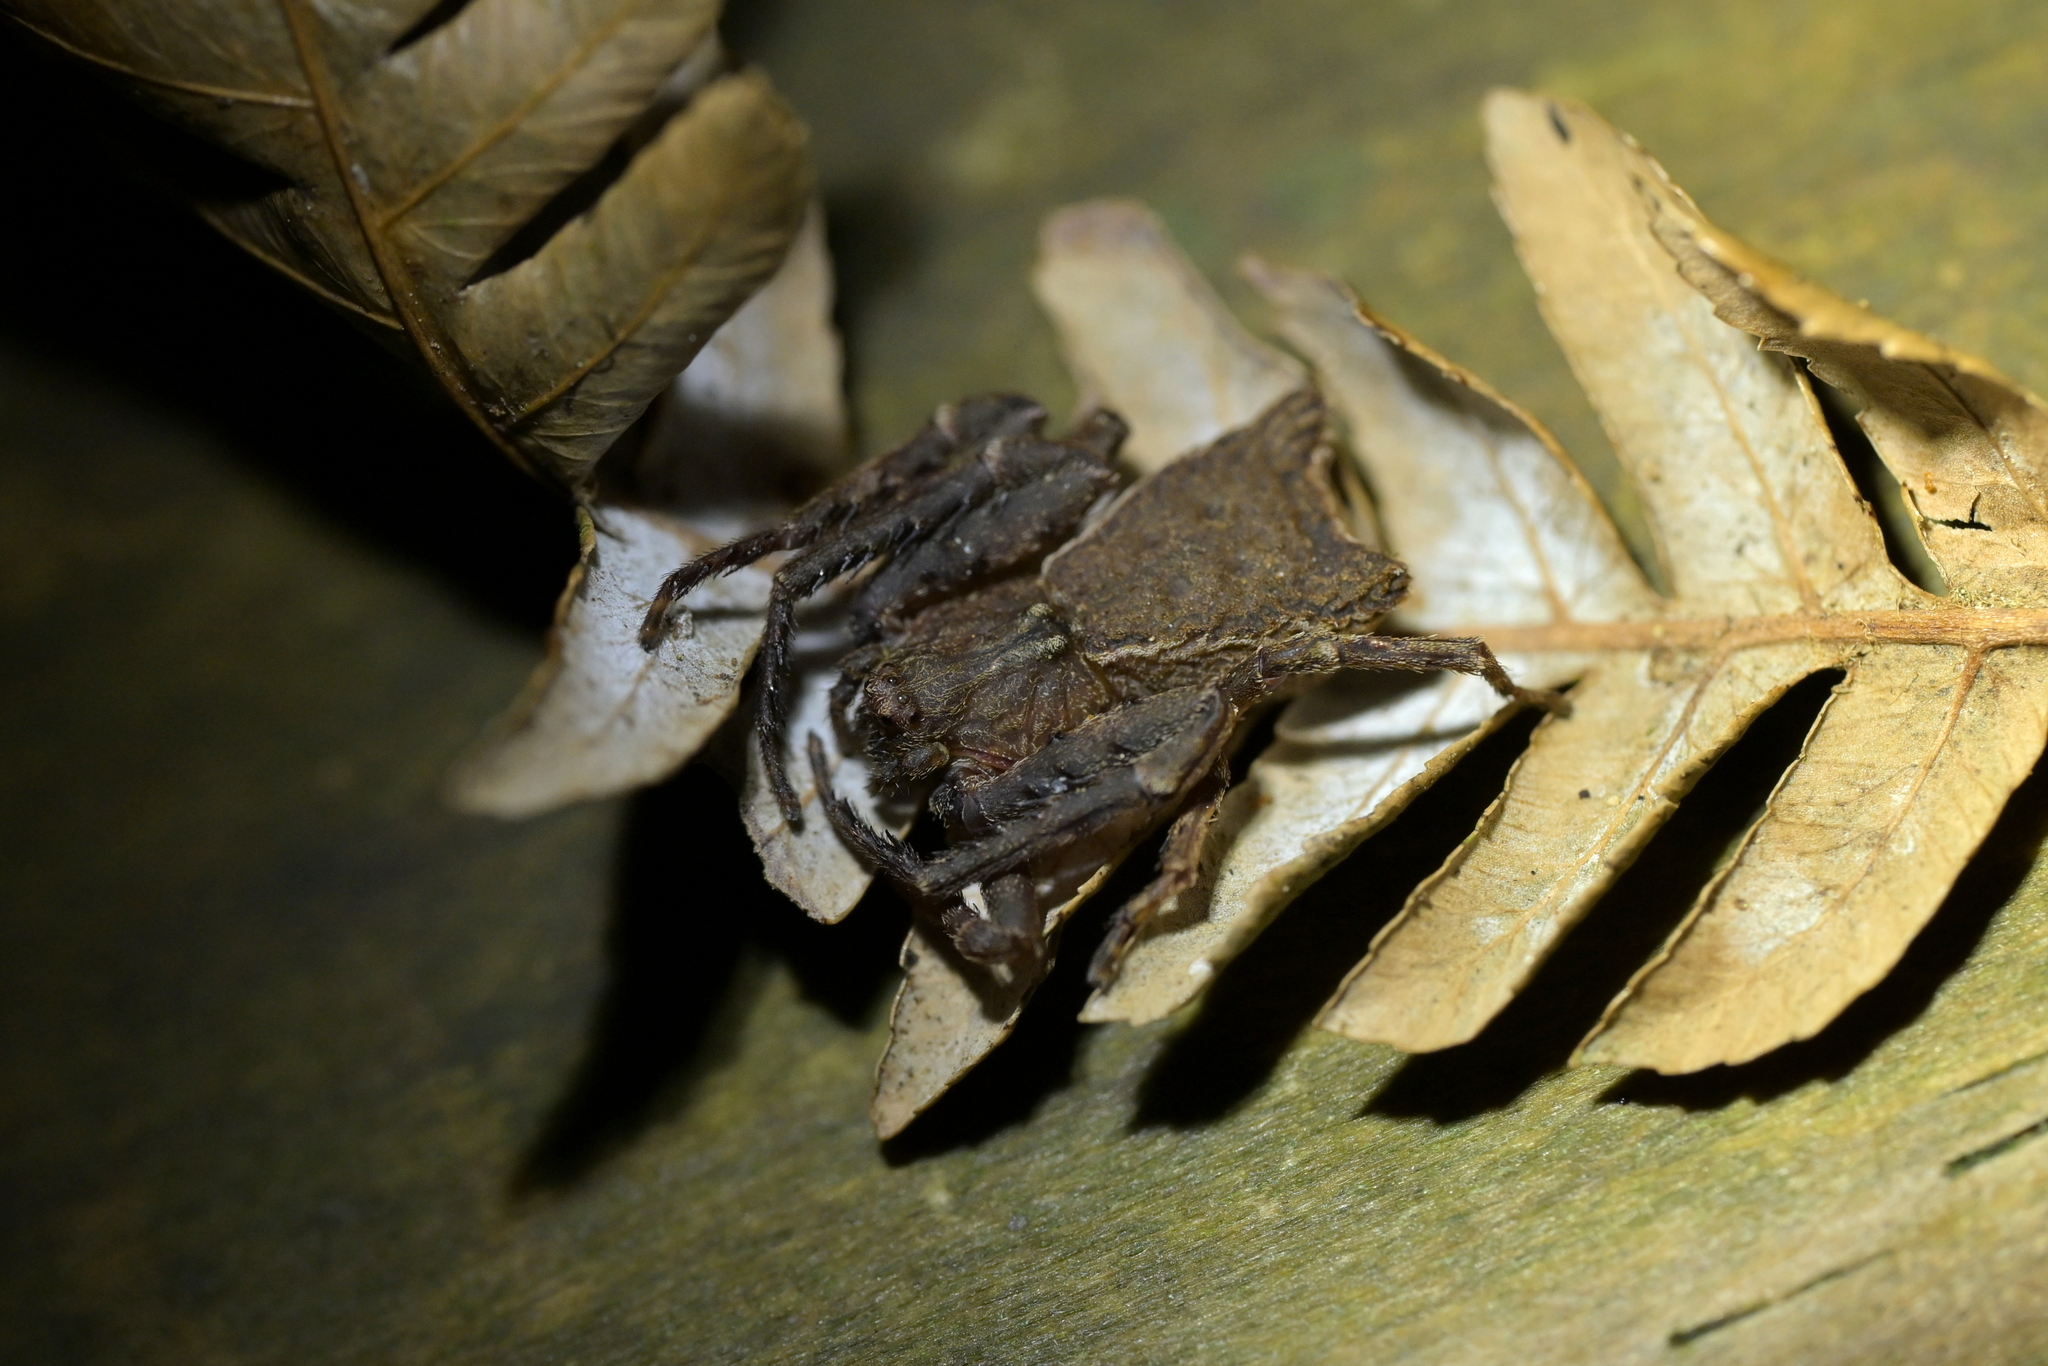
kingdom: Animalia
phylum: Arthropoda
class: Arachnida
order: Araneae
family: Thomisidae
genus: Sidymella
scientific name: Sidymella angularis
